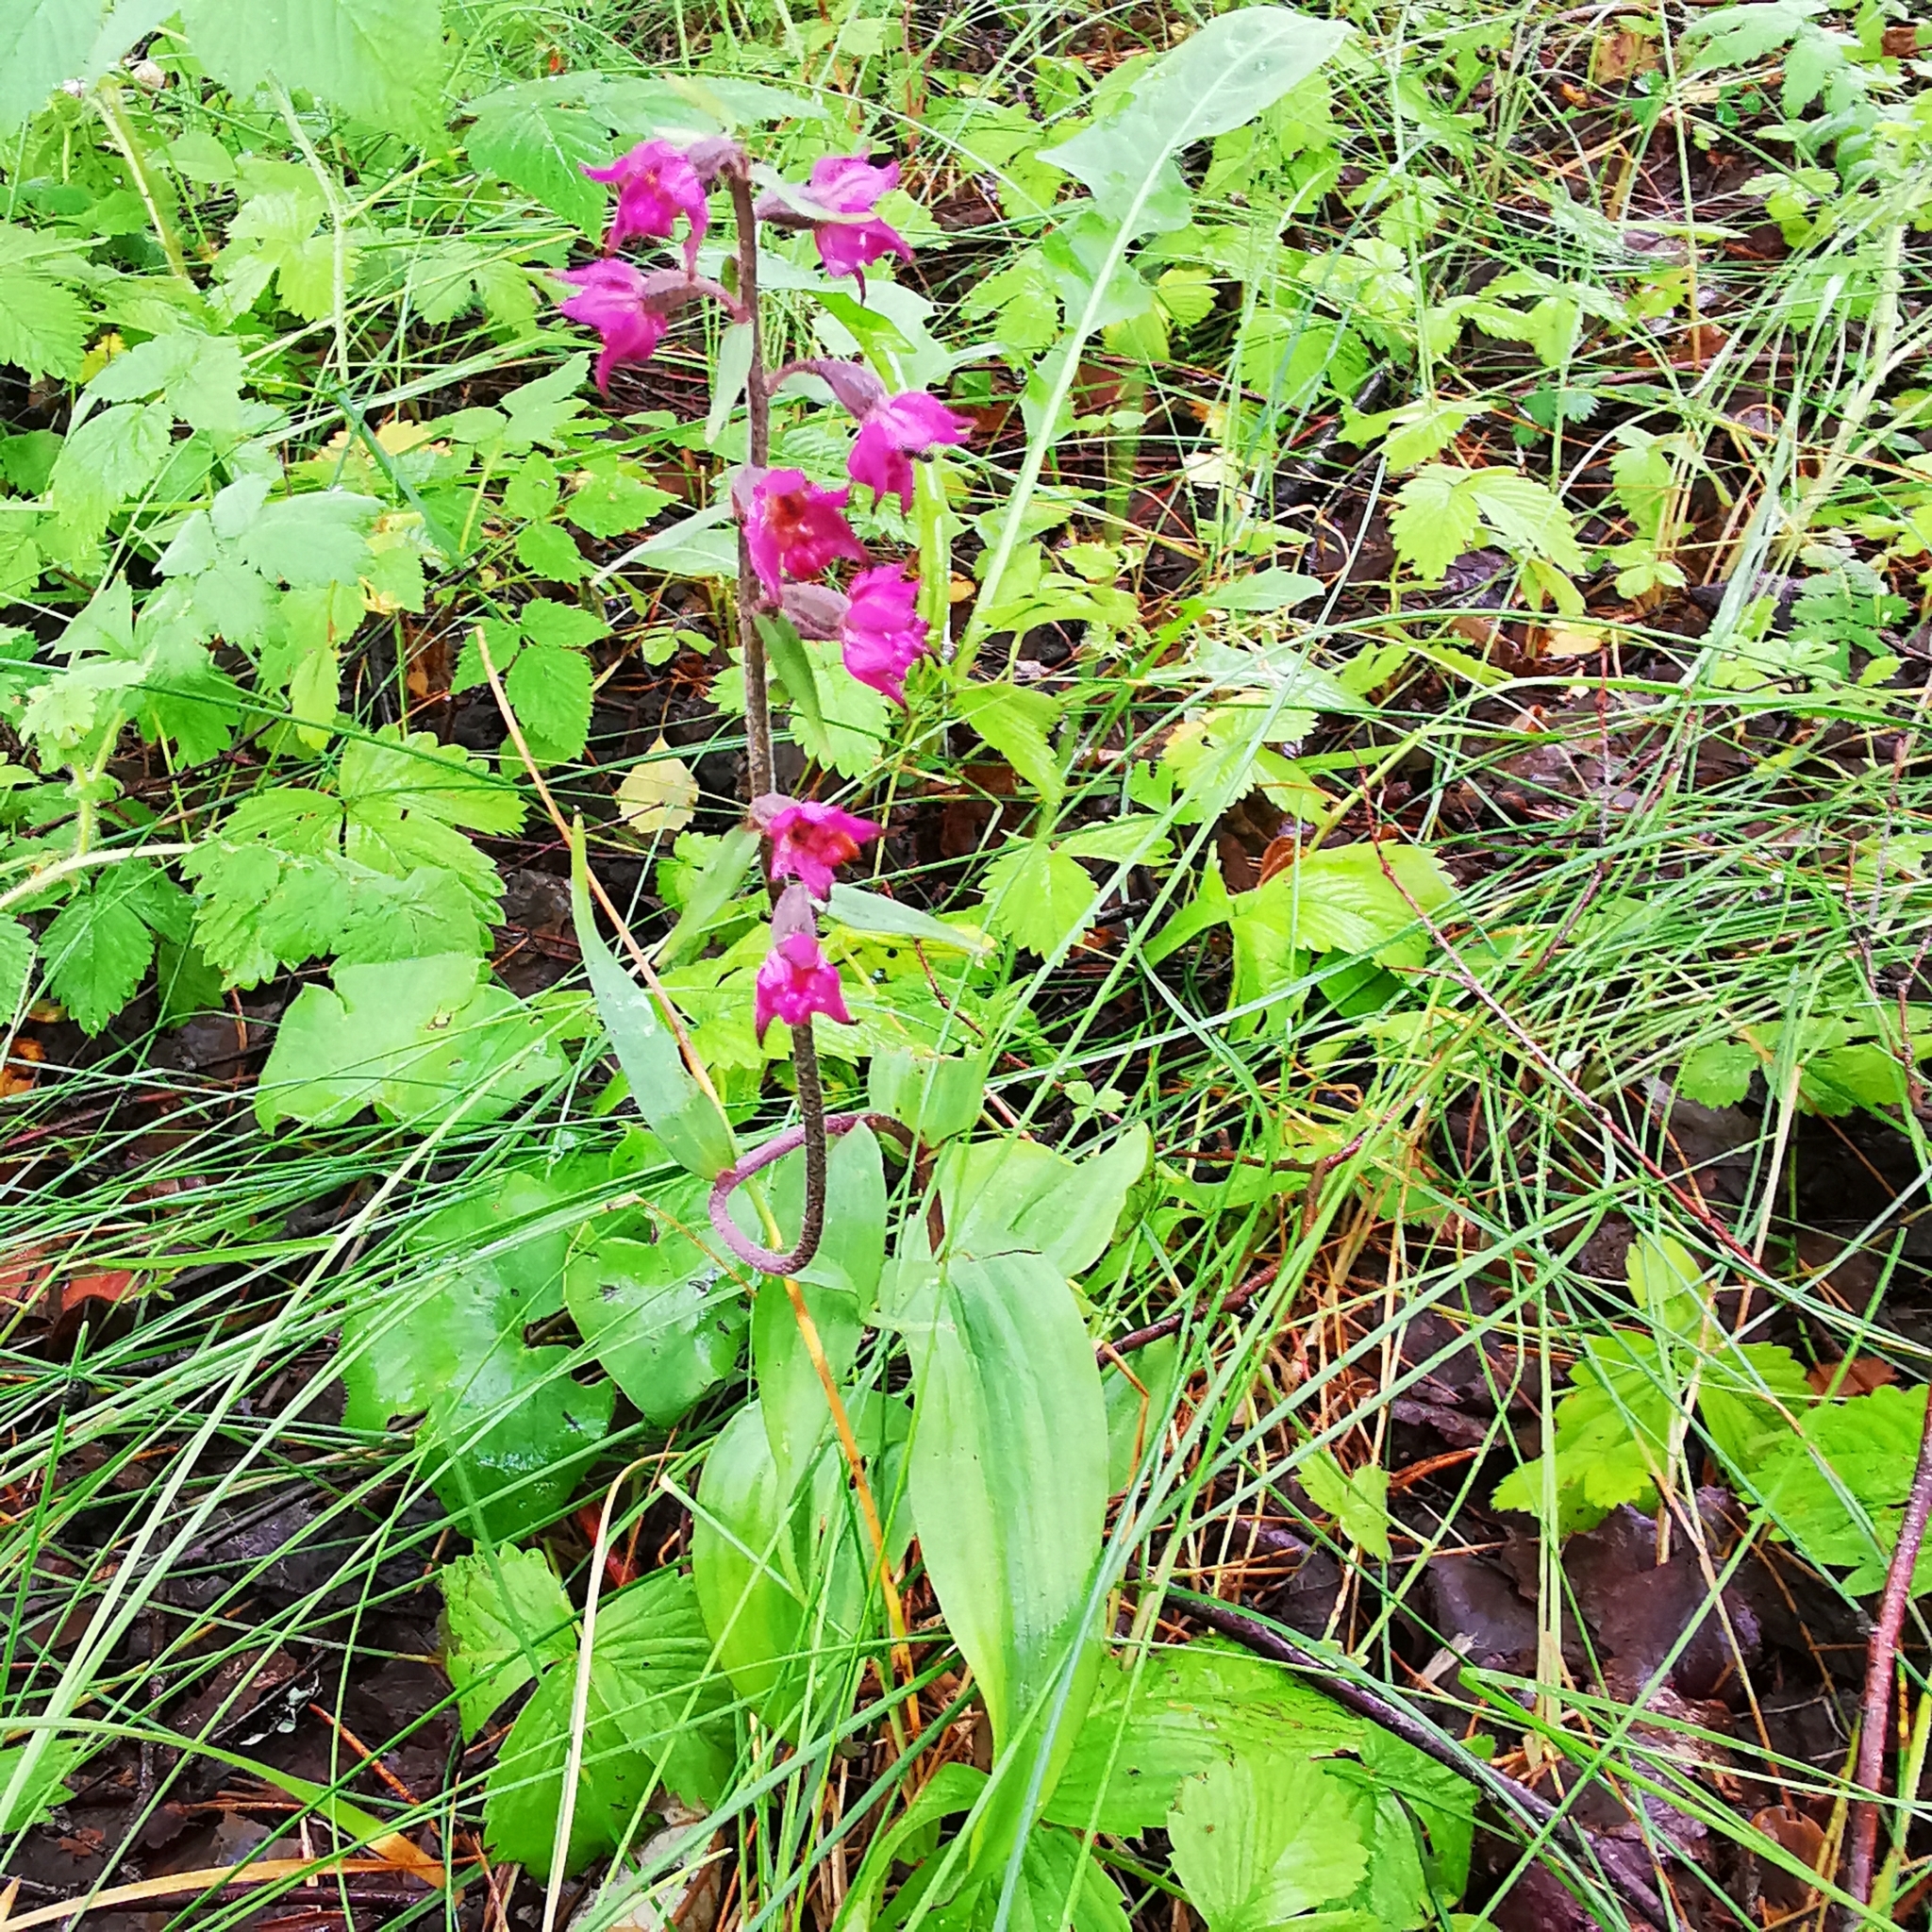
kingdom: Plantae
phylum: Tracheophyta
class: Liliopsida
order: Asparagales
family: Orchidaceae
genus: Epipactis
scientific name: Epipactis atrorubens
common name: Dark-red helleborine
